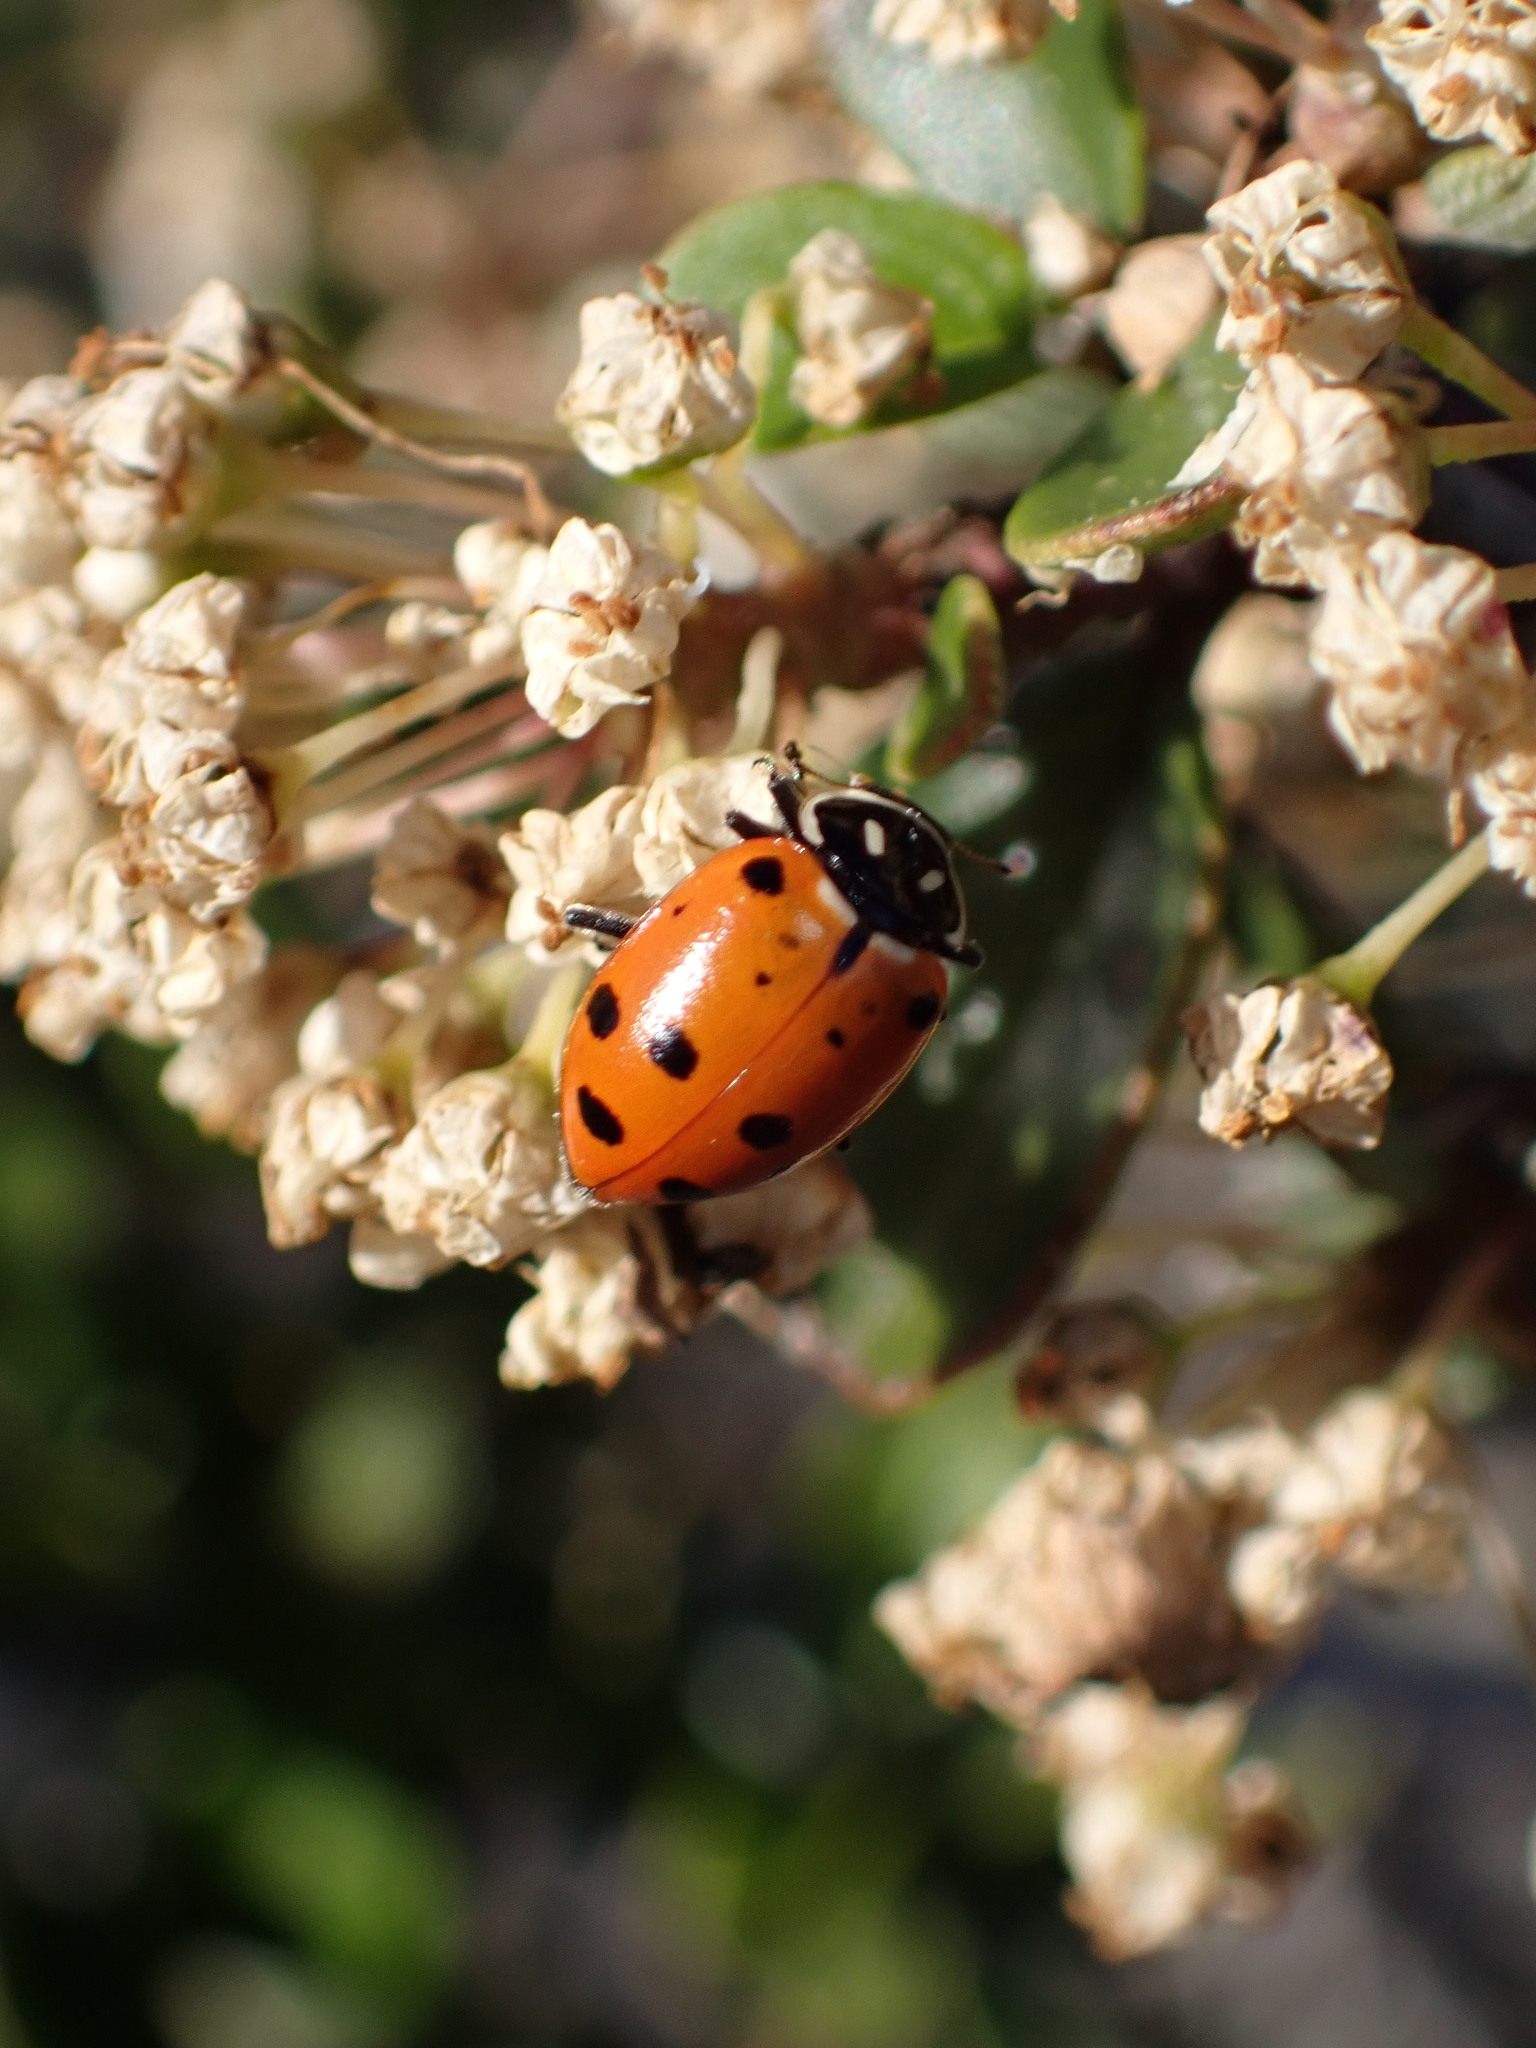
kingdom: Animalia
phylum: Arthropoda
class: Insecta
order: Coleoptera
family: Coccinellidae
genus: Hippodamia
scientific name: Hippodamia convergens
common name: Convergent lady beetle
